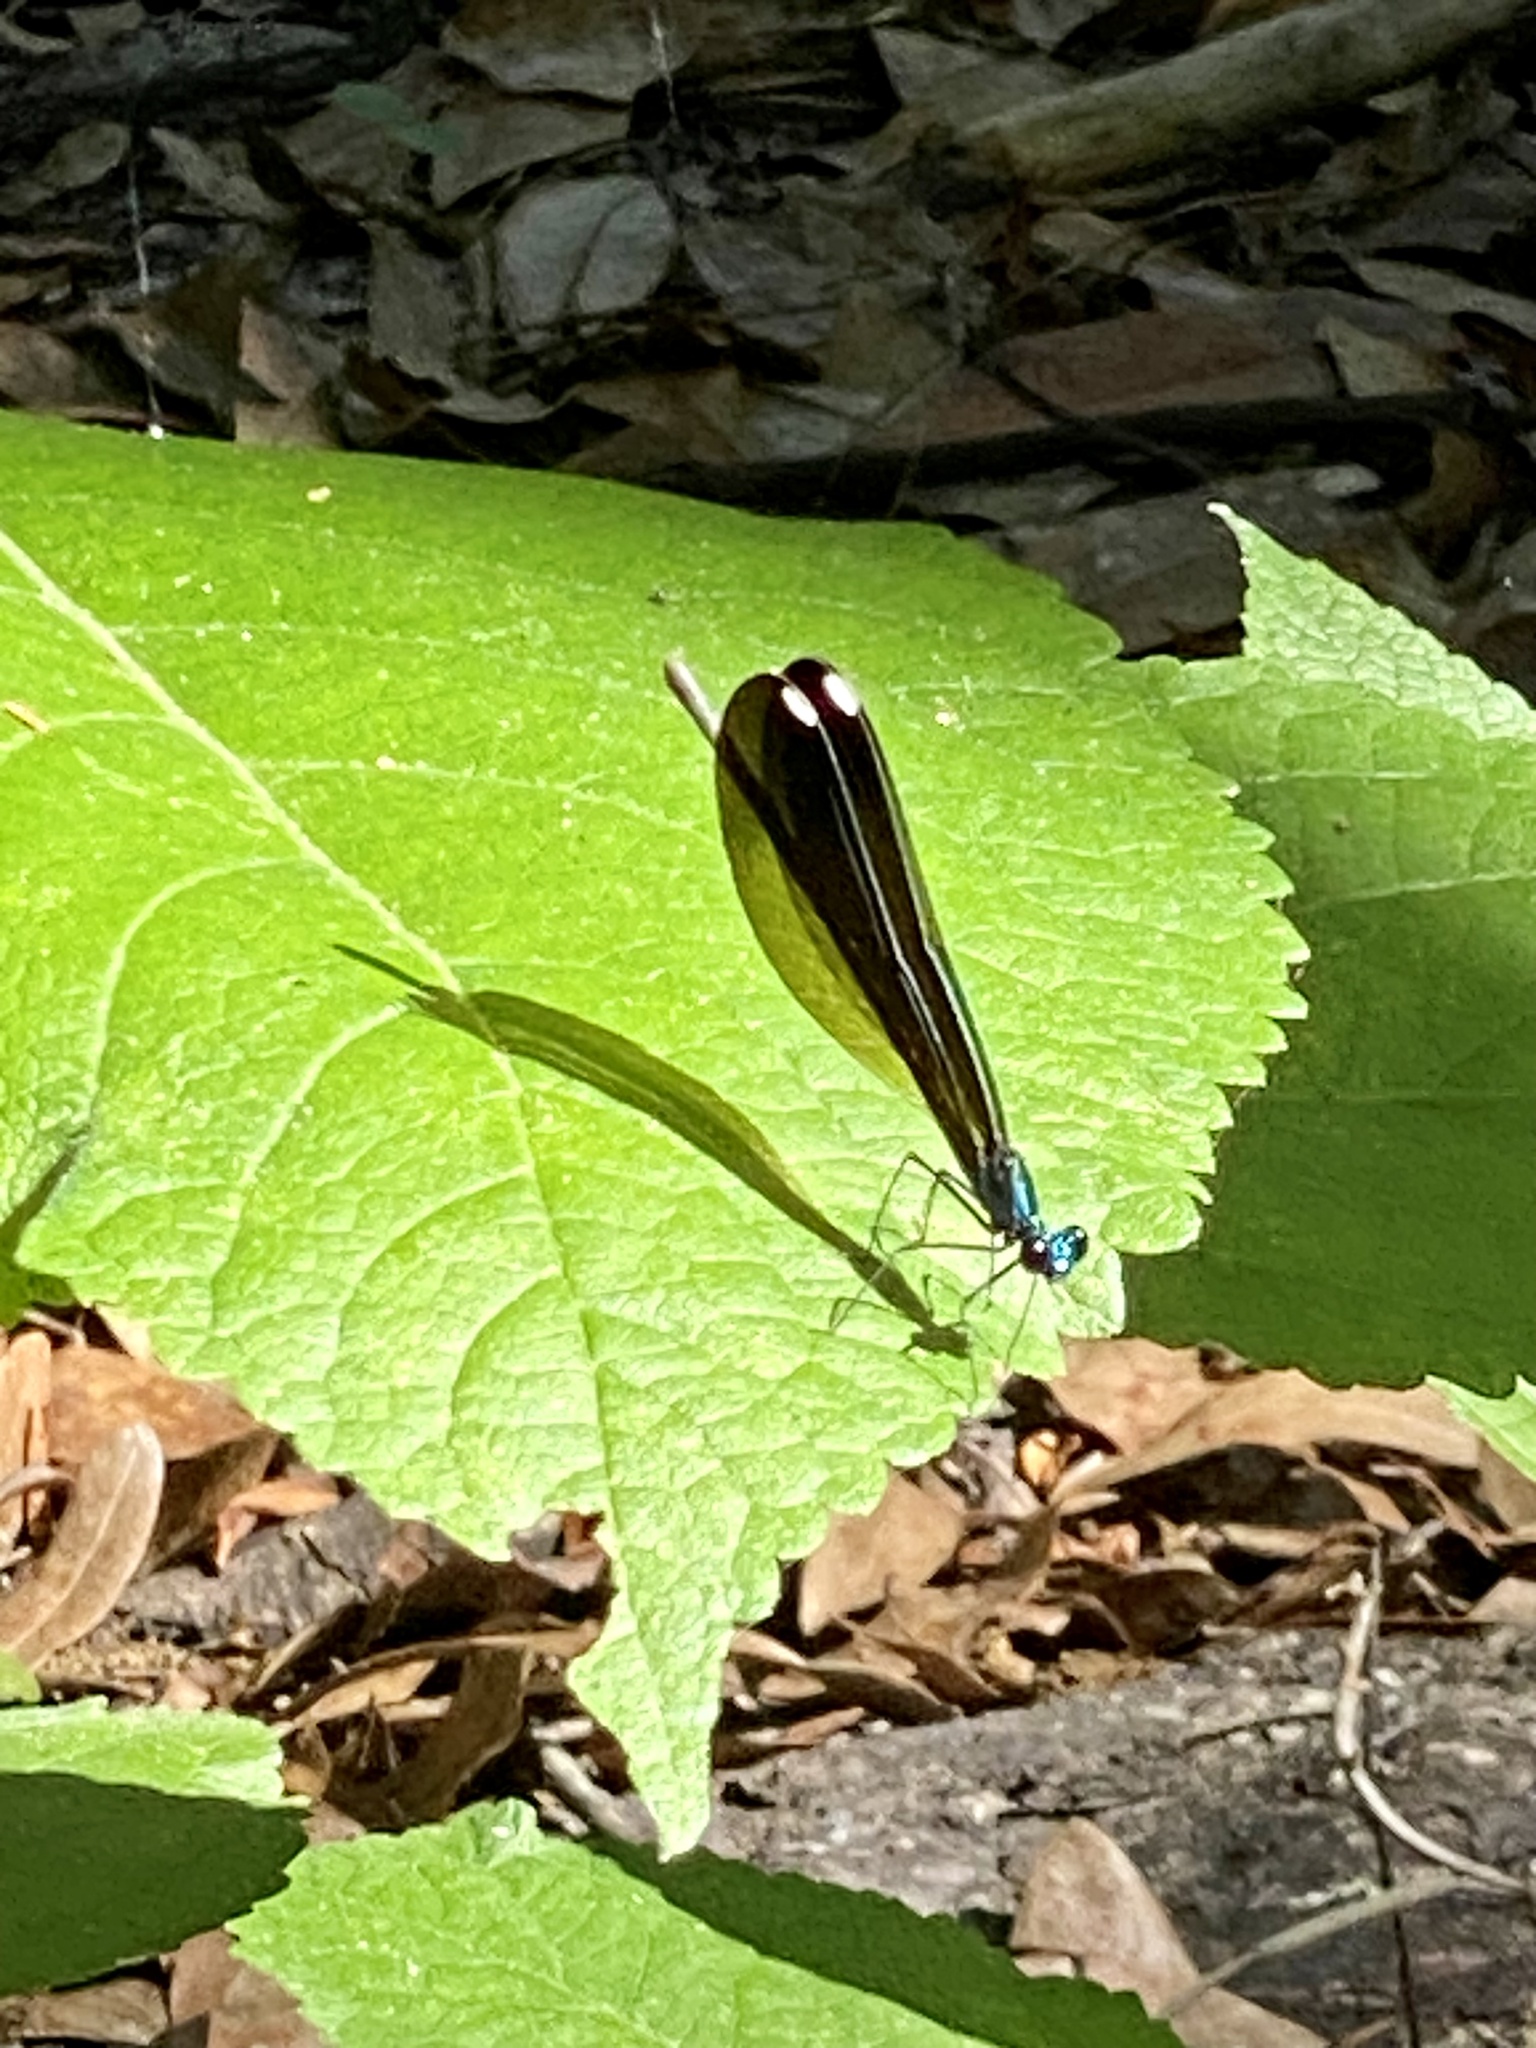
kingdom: Animalia
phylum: Arthropoda
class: Insecta
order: Odonata
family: Calopterygidae
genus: Calopteryx
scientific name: Calopteryx maculata
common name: Ebony jewelwing
